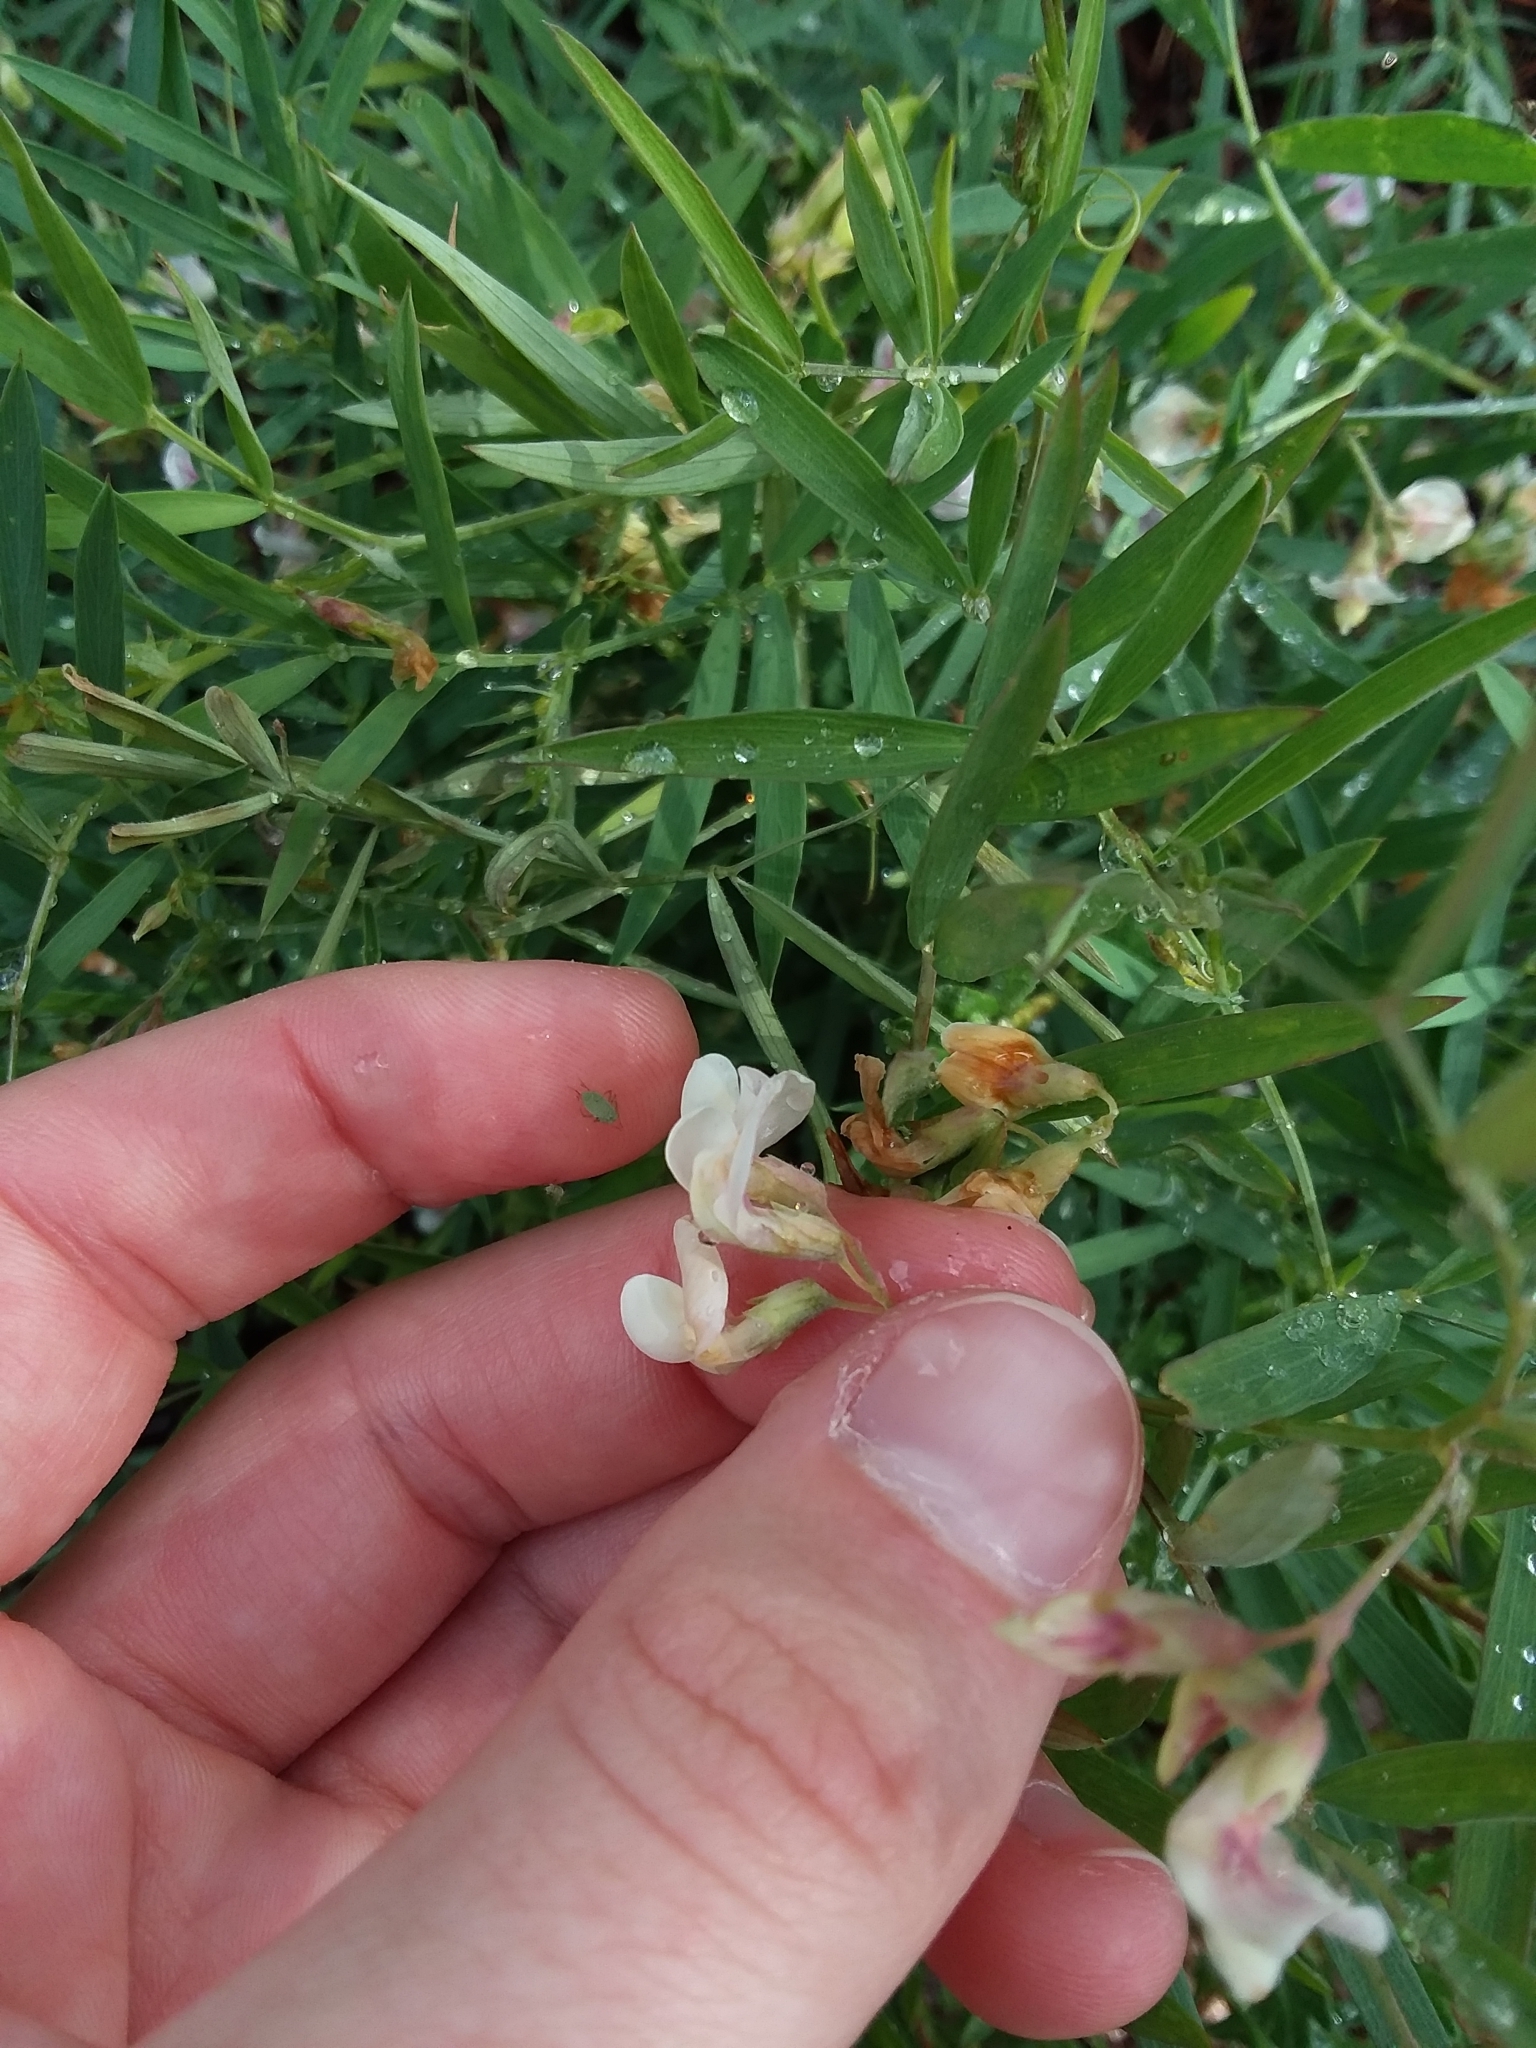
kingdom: Plantae
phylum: Tracheophyta
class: Magnoliopsida
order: Fabales
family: Fabaceae
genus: Lathyrus
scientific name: Lathyrus lanszwertii
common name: Lanszwert's vetchling
